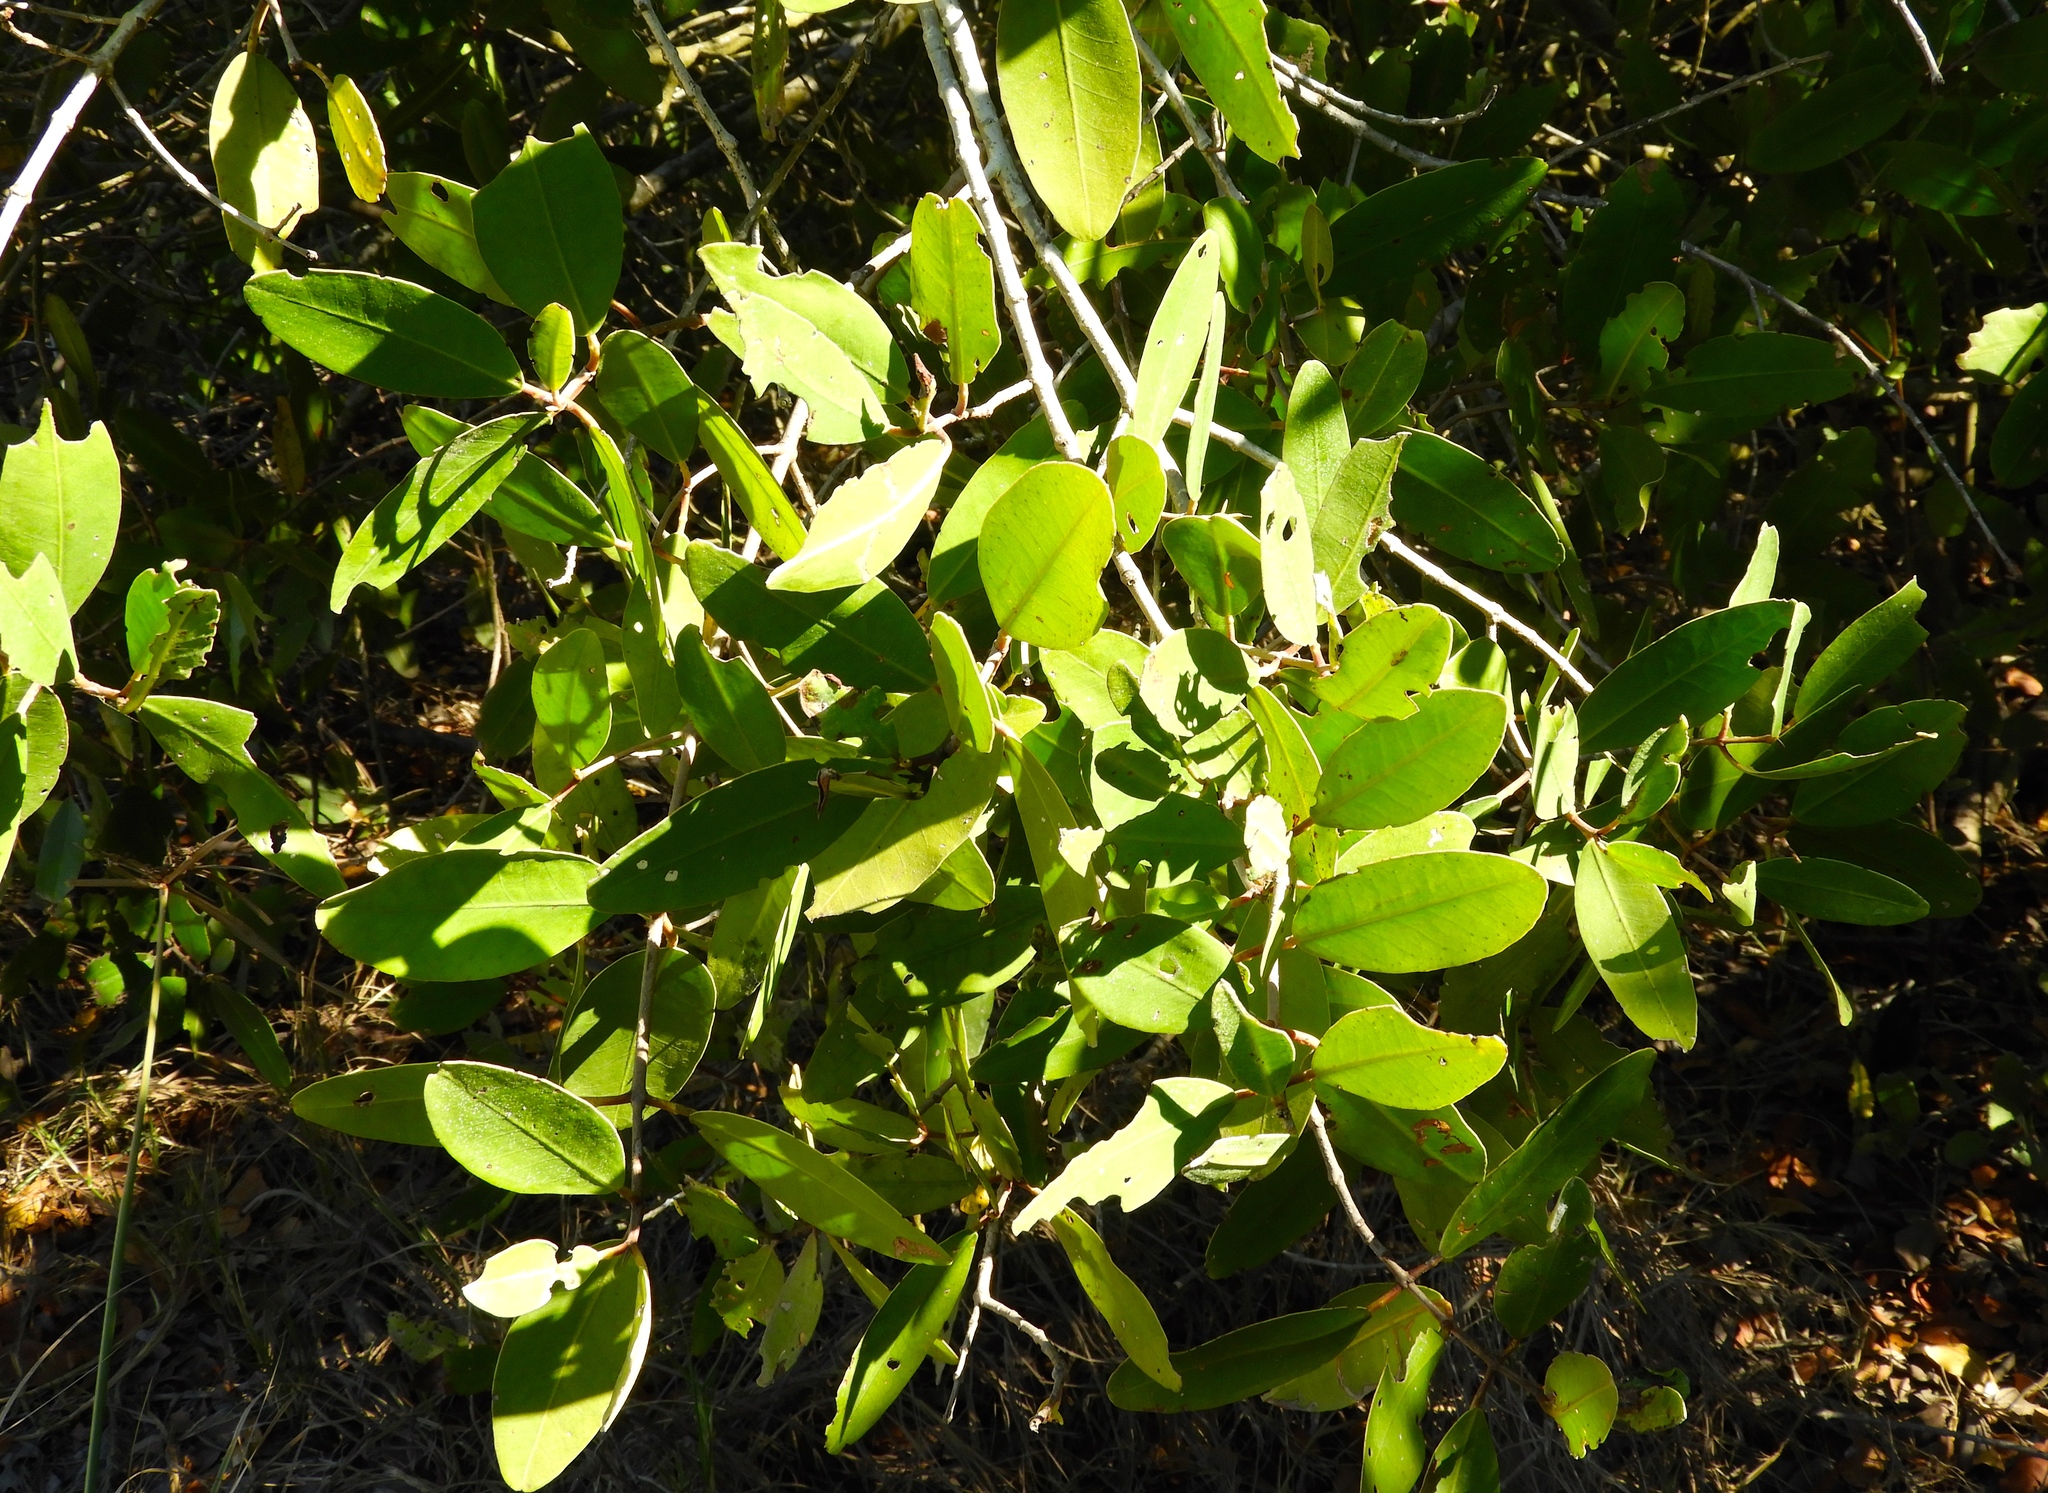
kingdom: Plantae
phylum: Tracheophyta
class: Magnoliopsida
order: Myrtales
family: Combretaceae
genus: Laguncularia
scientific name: Laguncularia racemosa
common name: White mangrove
